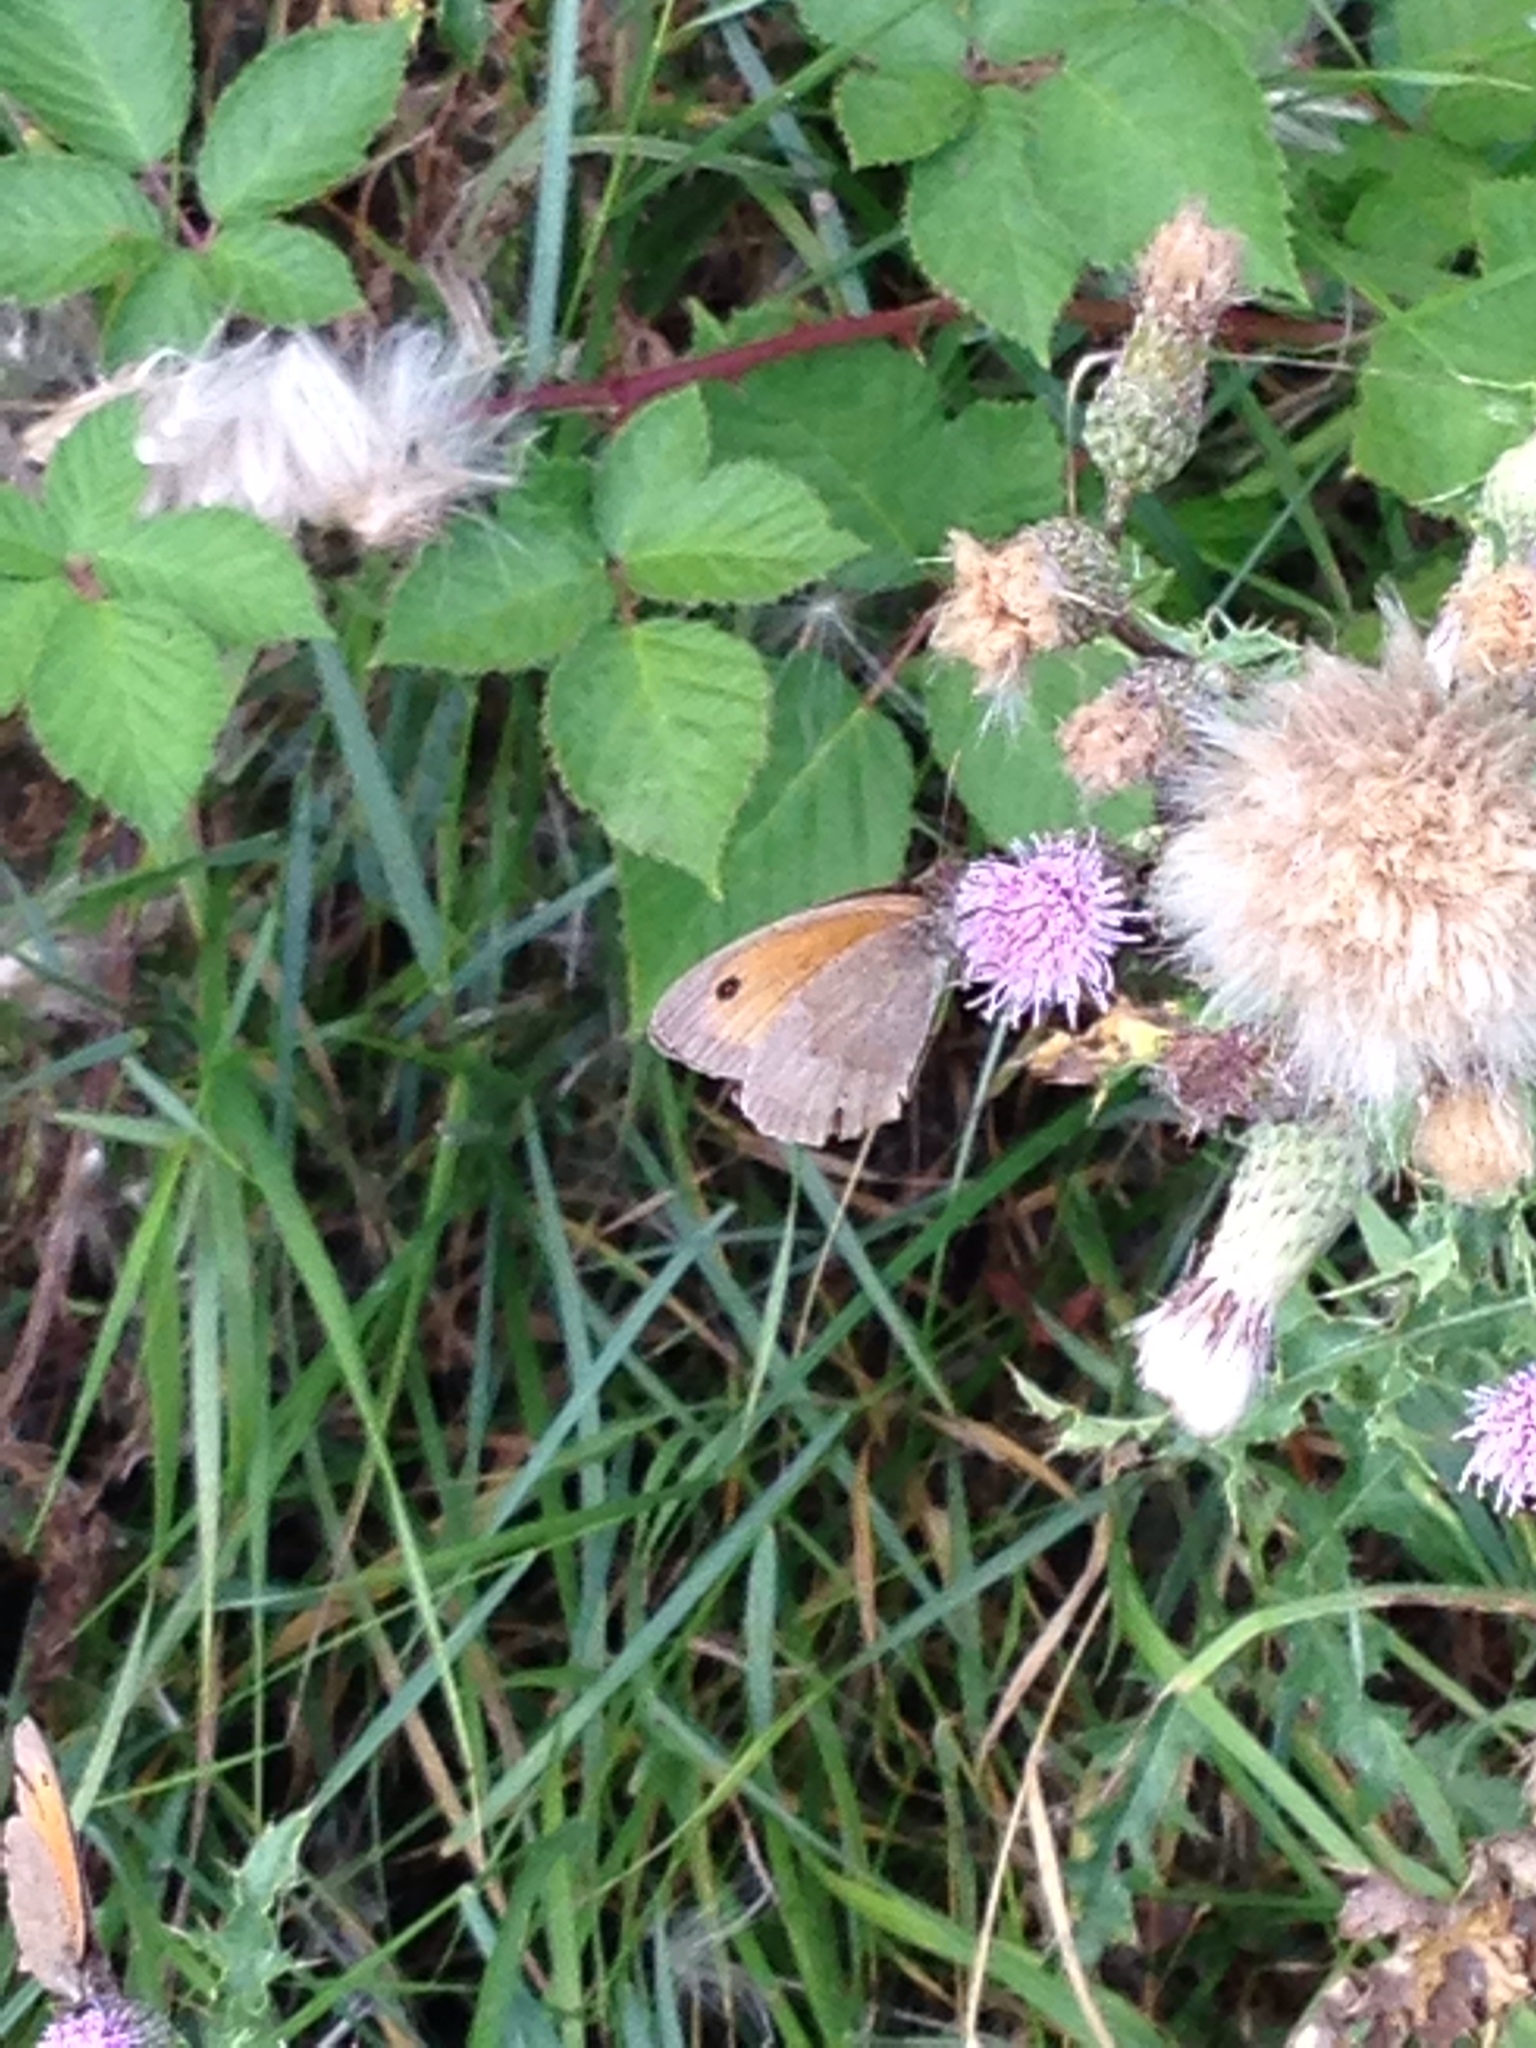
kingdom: Animalia
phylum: Arthropoda
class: Insecta
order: Lepidoptera
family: Nymphalidae
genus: Maniola
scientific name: Maniola jurtina
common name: Meadow brown
